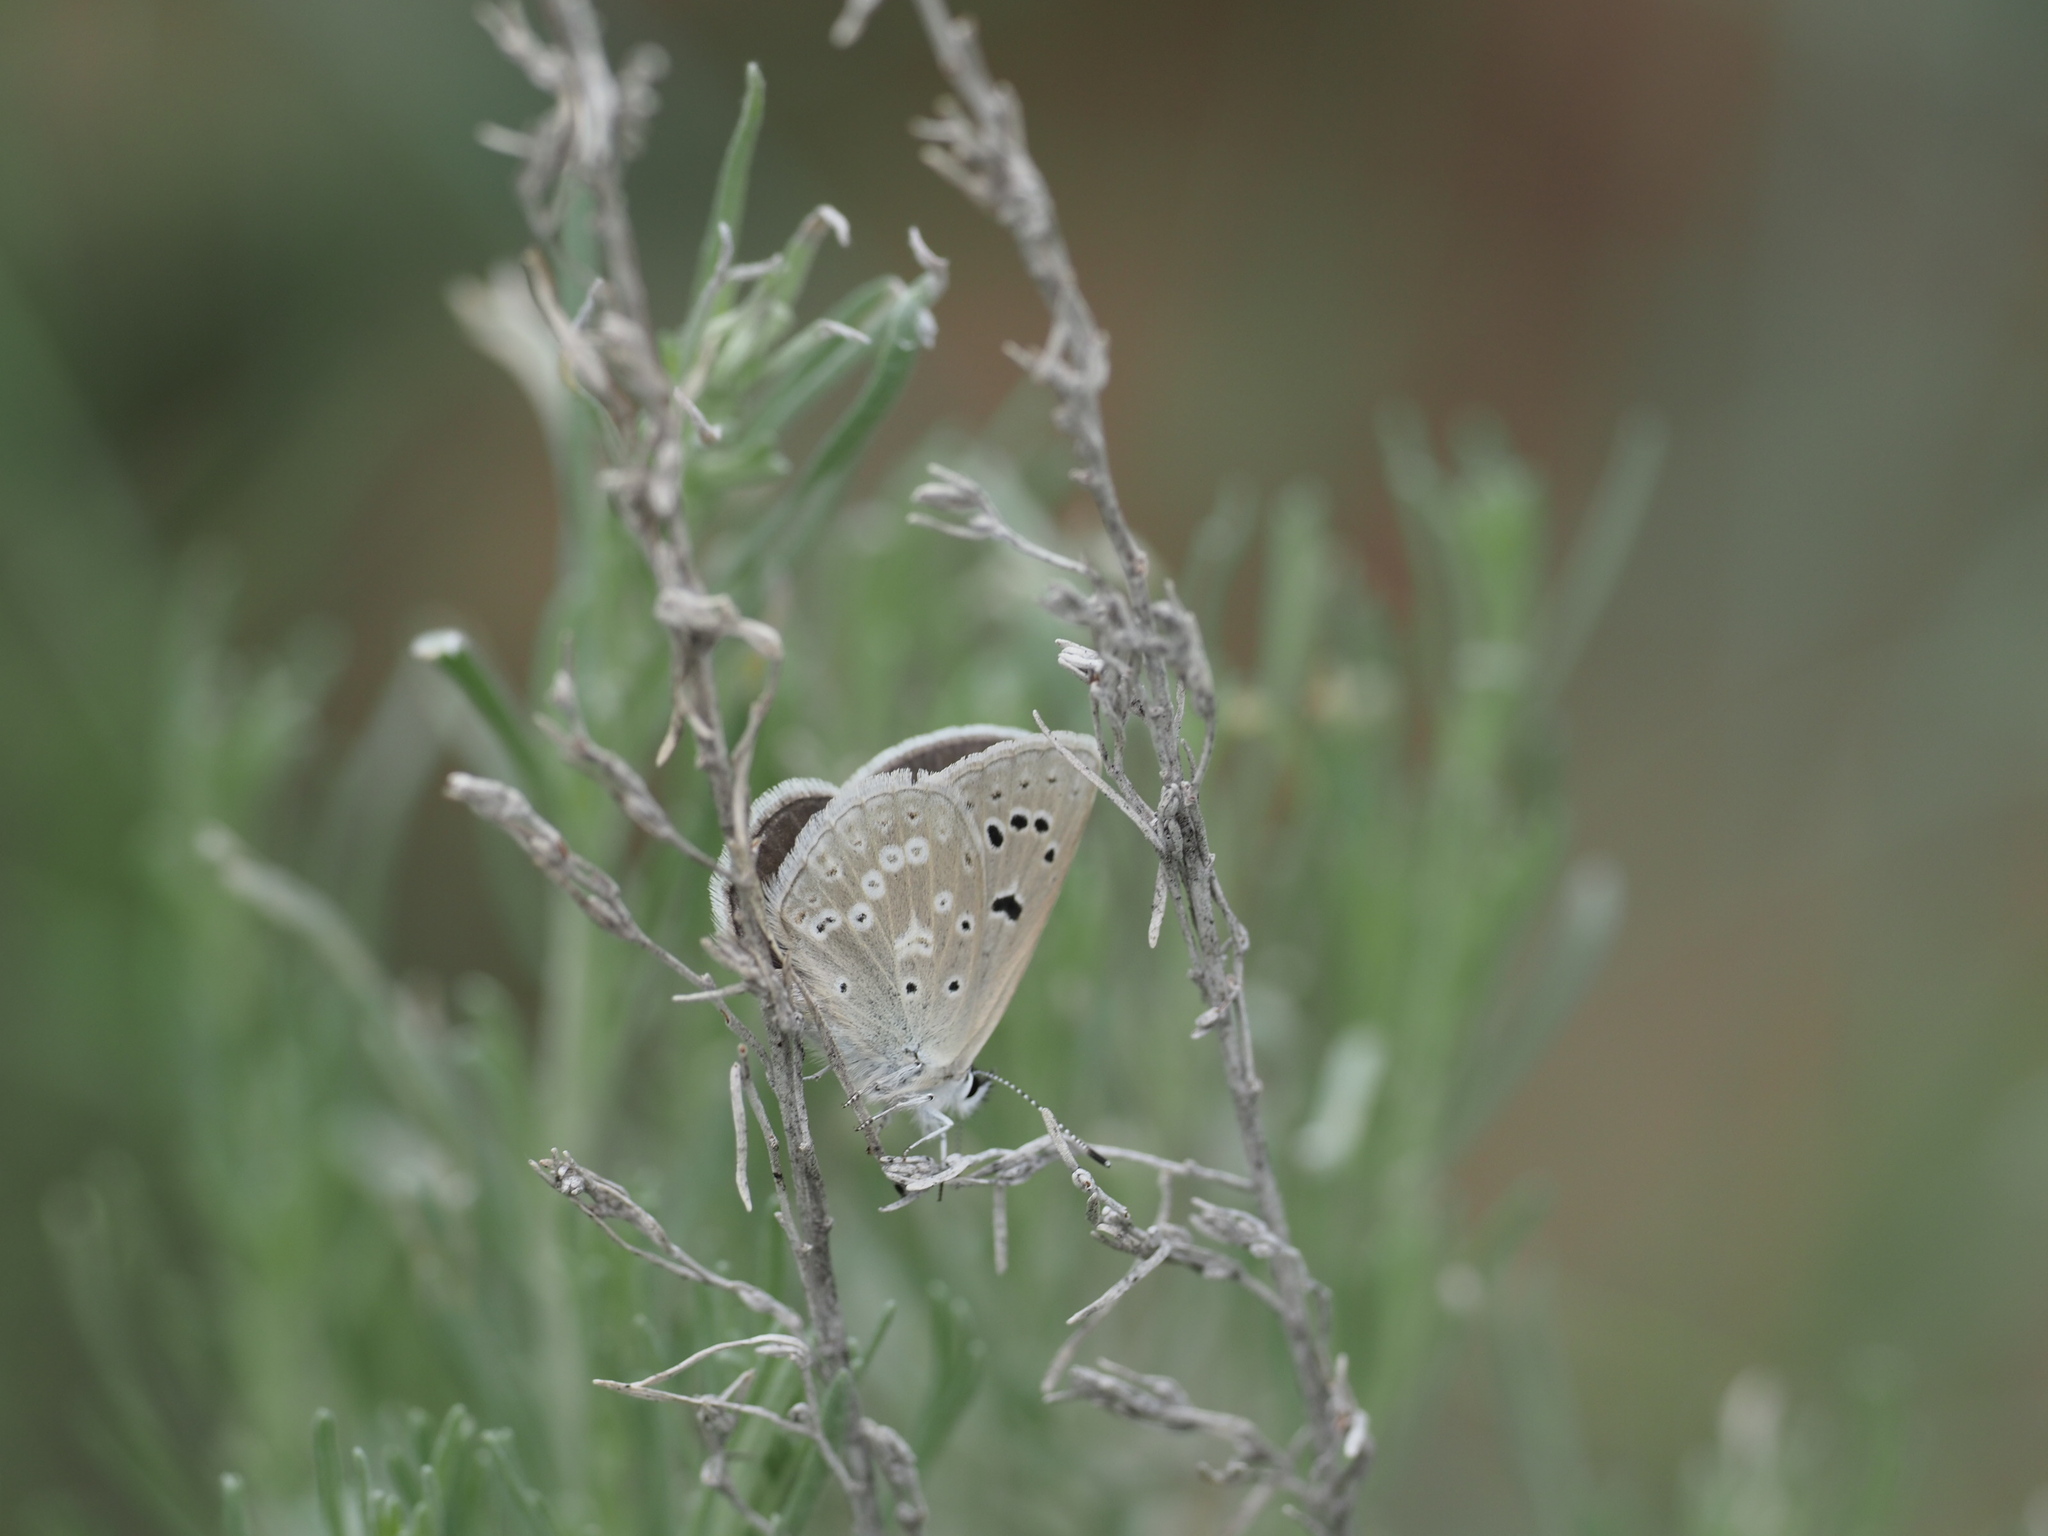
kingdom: Animalia
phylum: Arthropoda
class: Insecta
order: Lepidoptera
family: Lycaenidae
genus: Icaricia
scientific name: Icaricia icarioides
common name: Boisduval's blue
